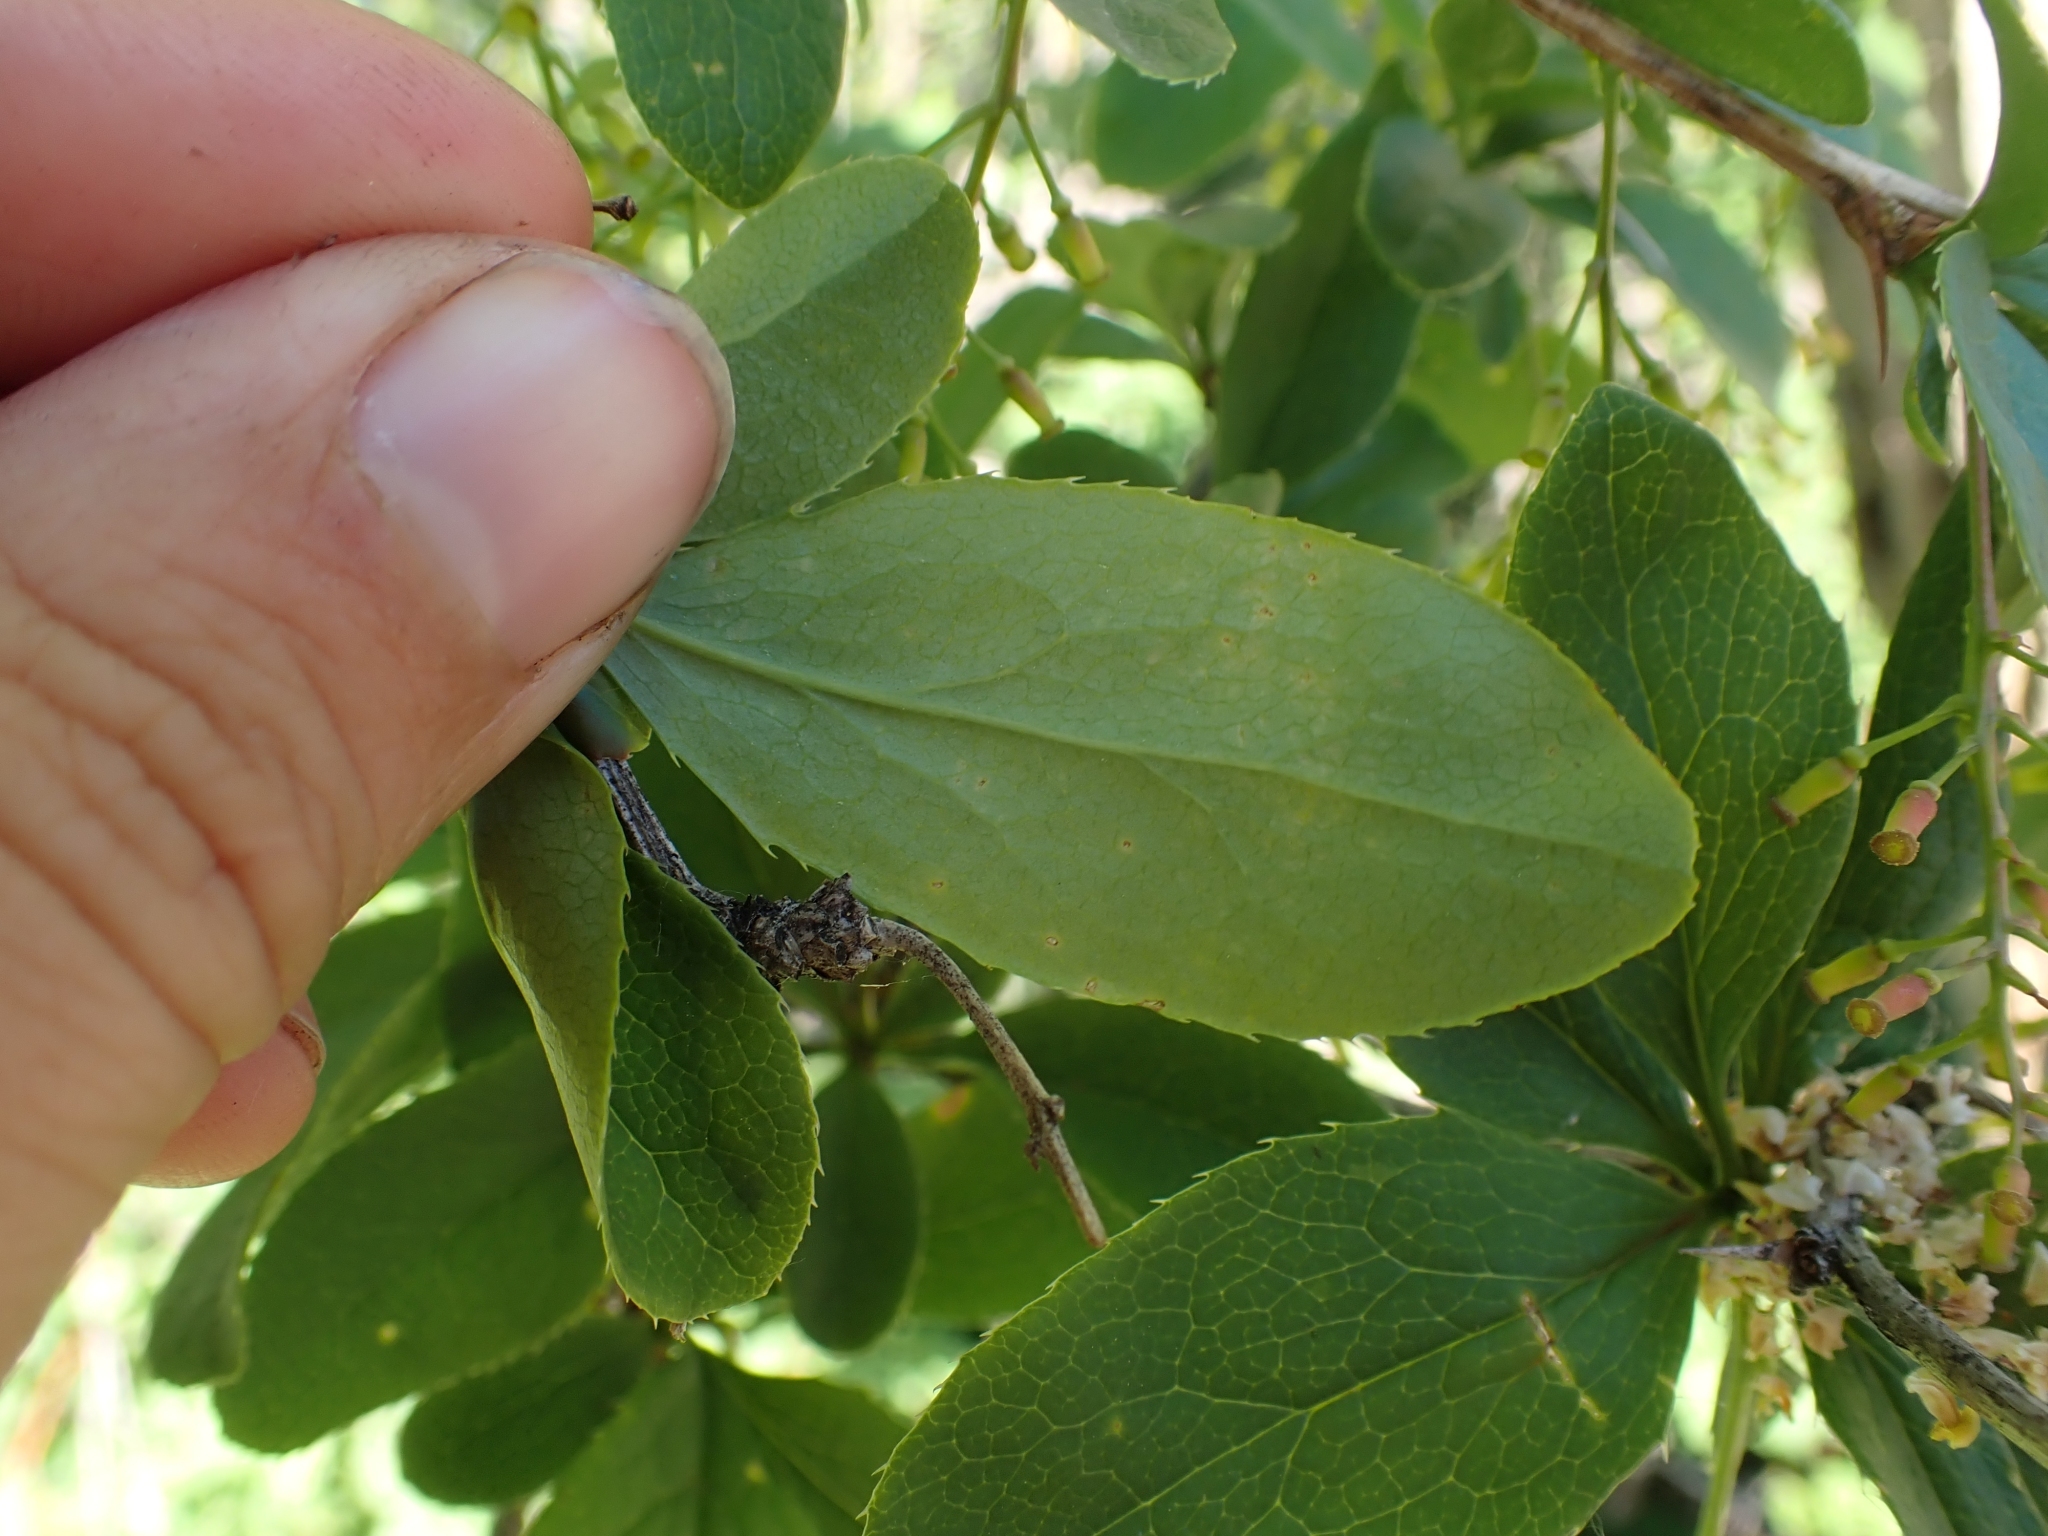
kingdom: Plantae
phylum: Tracheophyta
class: Magnoliopsida
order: Ranunculales
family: Berberidaceae
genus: Berberis
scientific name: Berberis vulgaris
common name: Barberry
